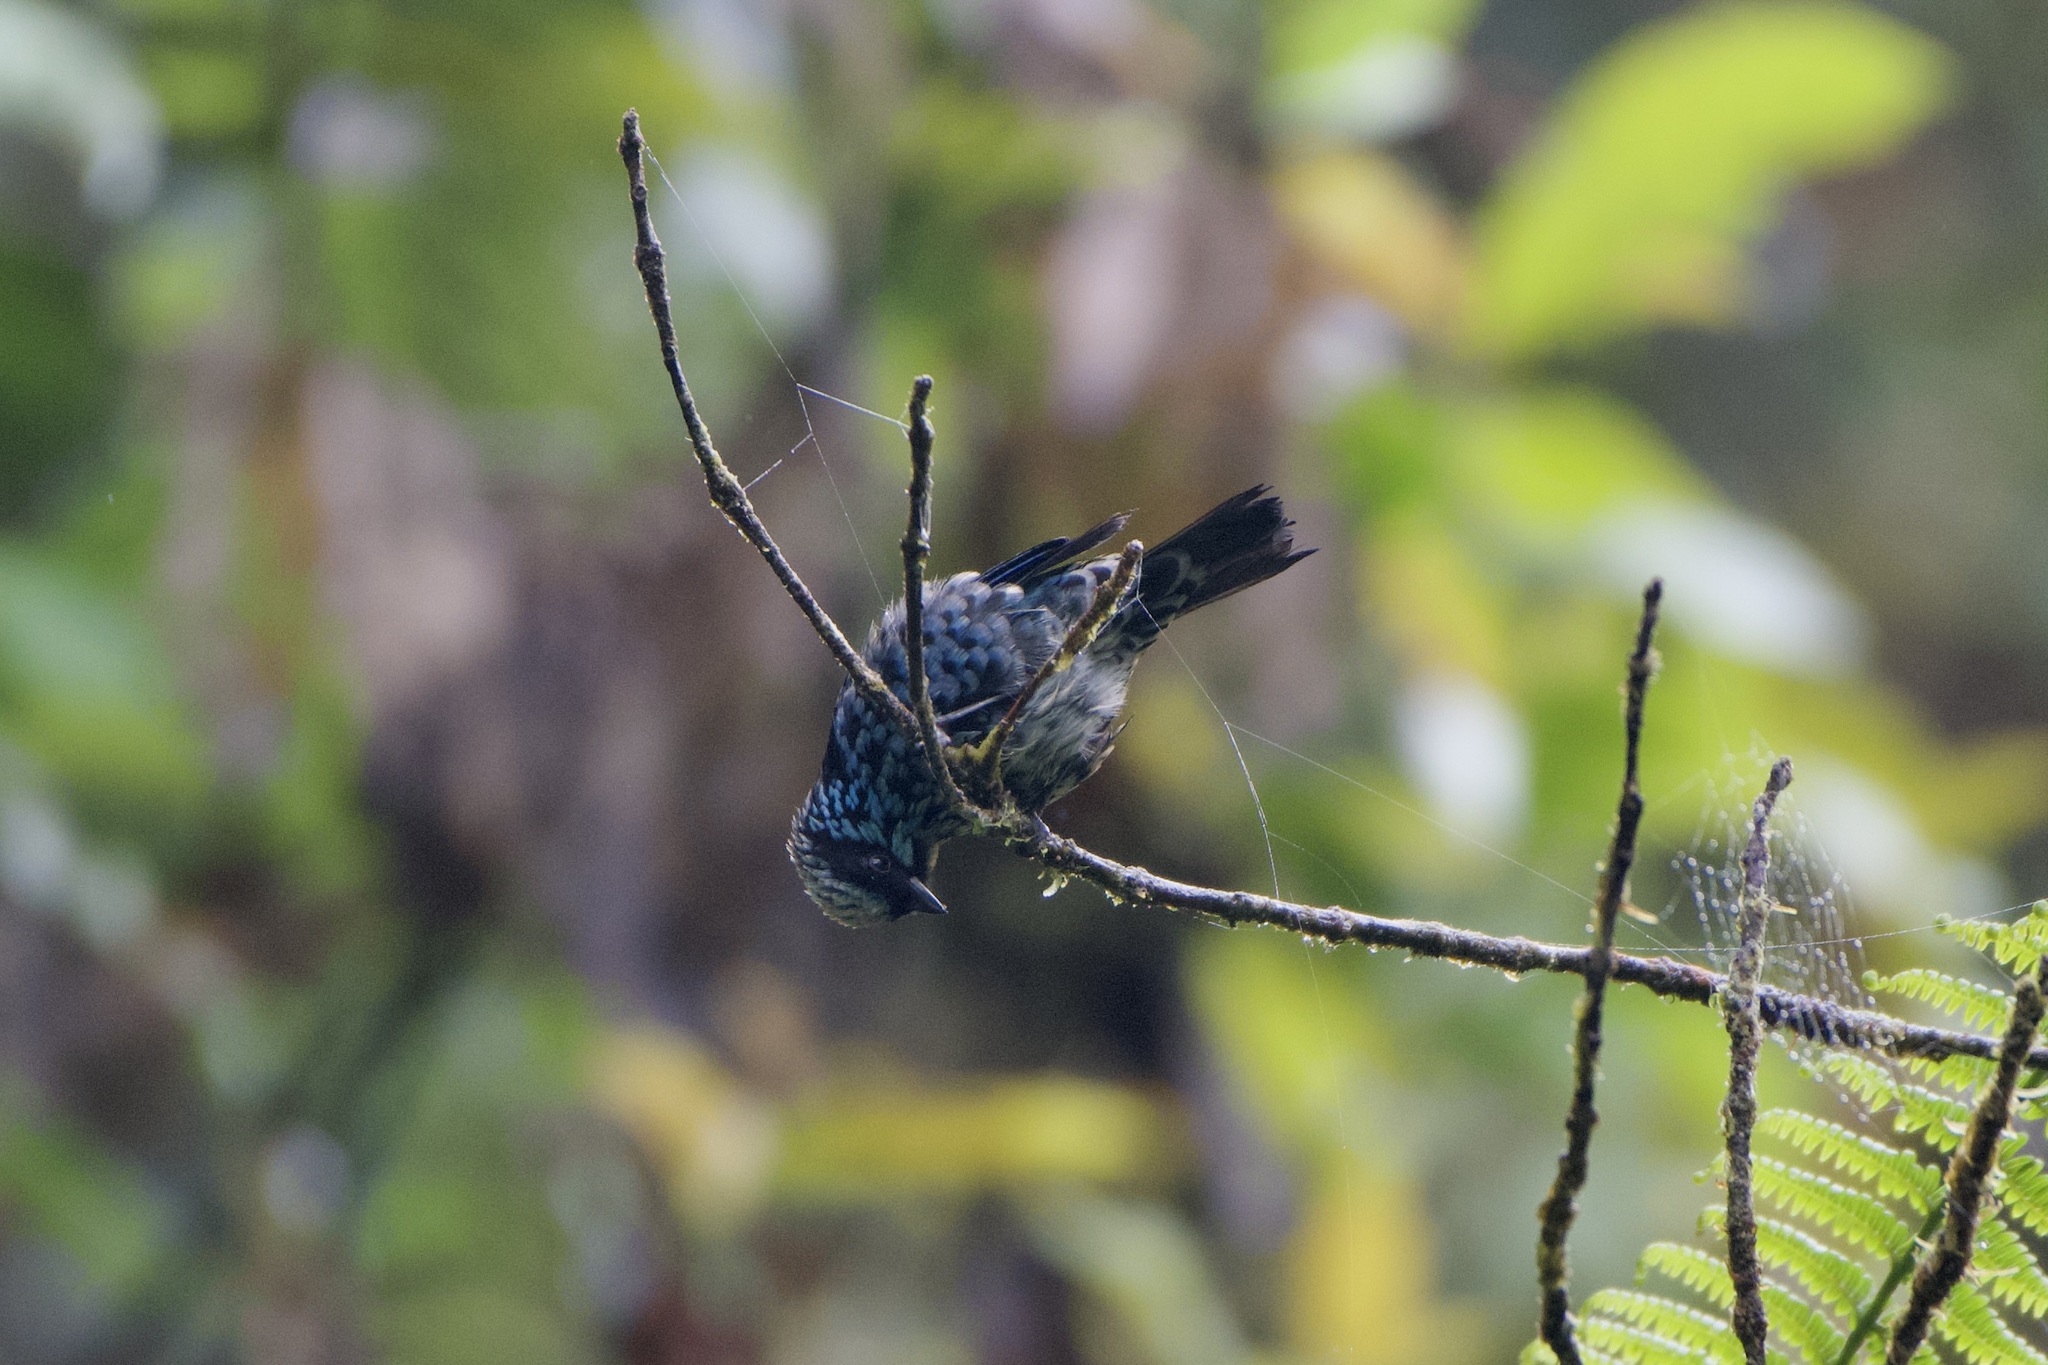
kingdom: Animalia
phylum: Chordata
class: Aves
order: Passeriformes
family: Thraupidae
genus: Tangara
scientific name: Tangara nigroviridis
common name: Beryl-spangled tanager
